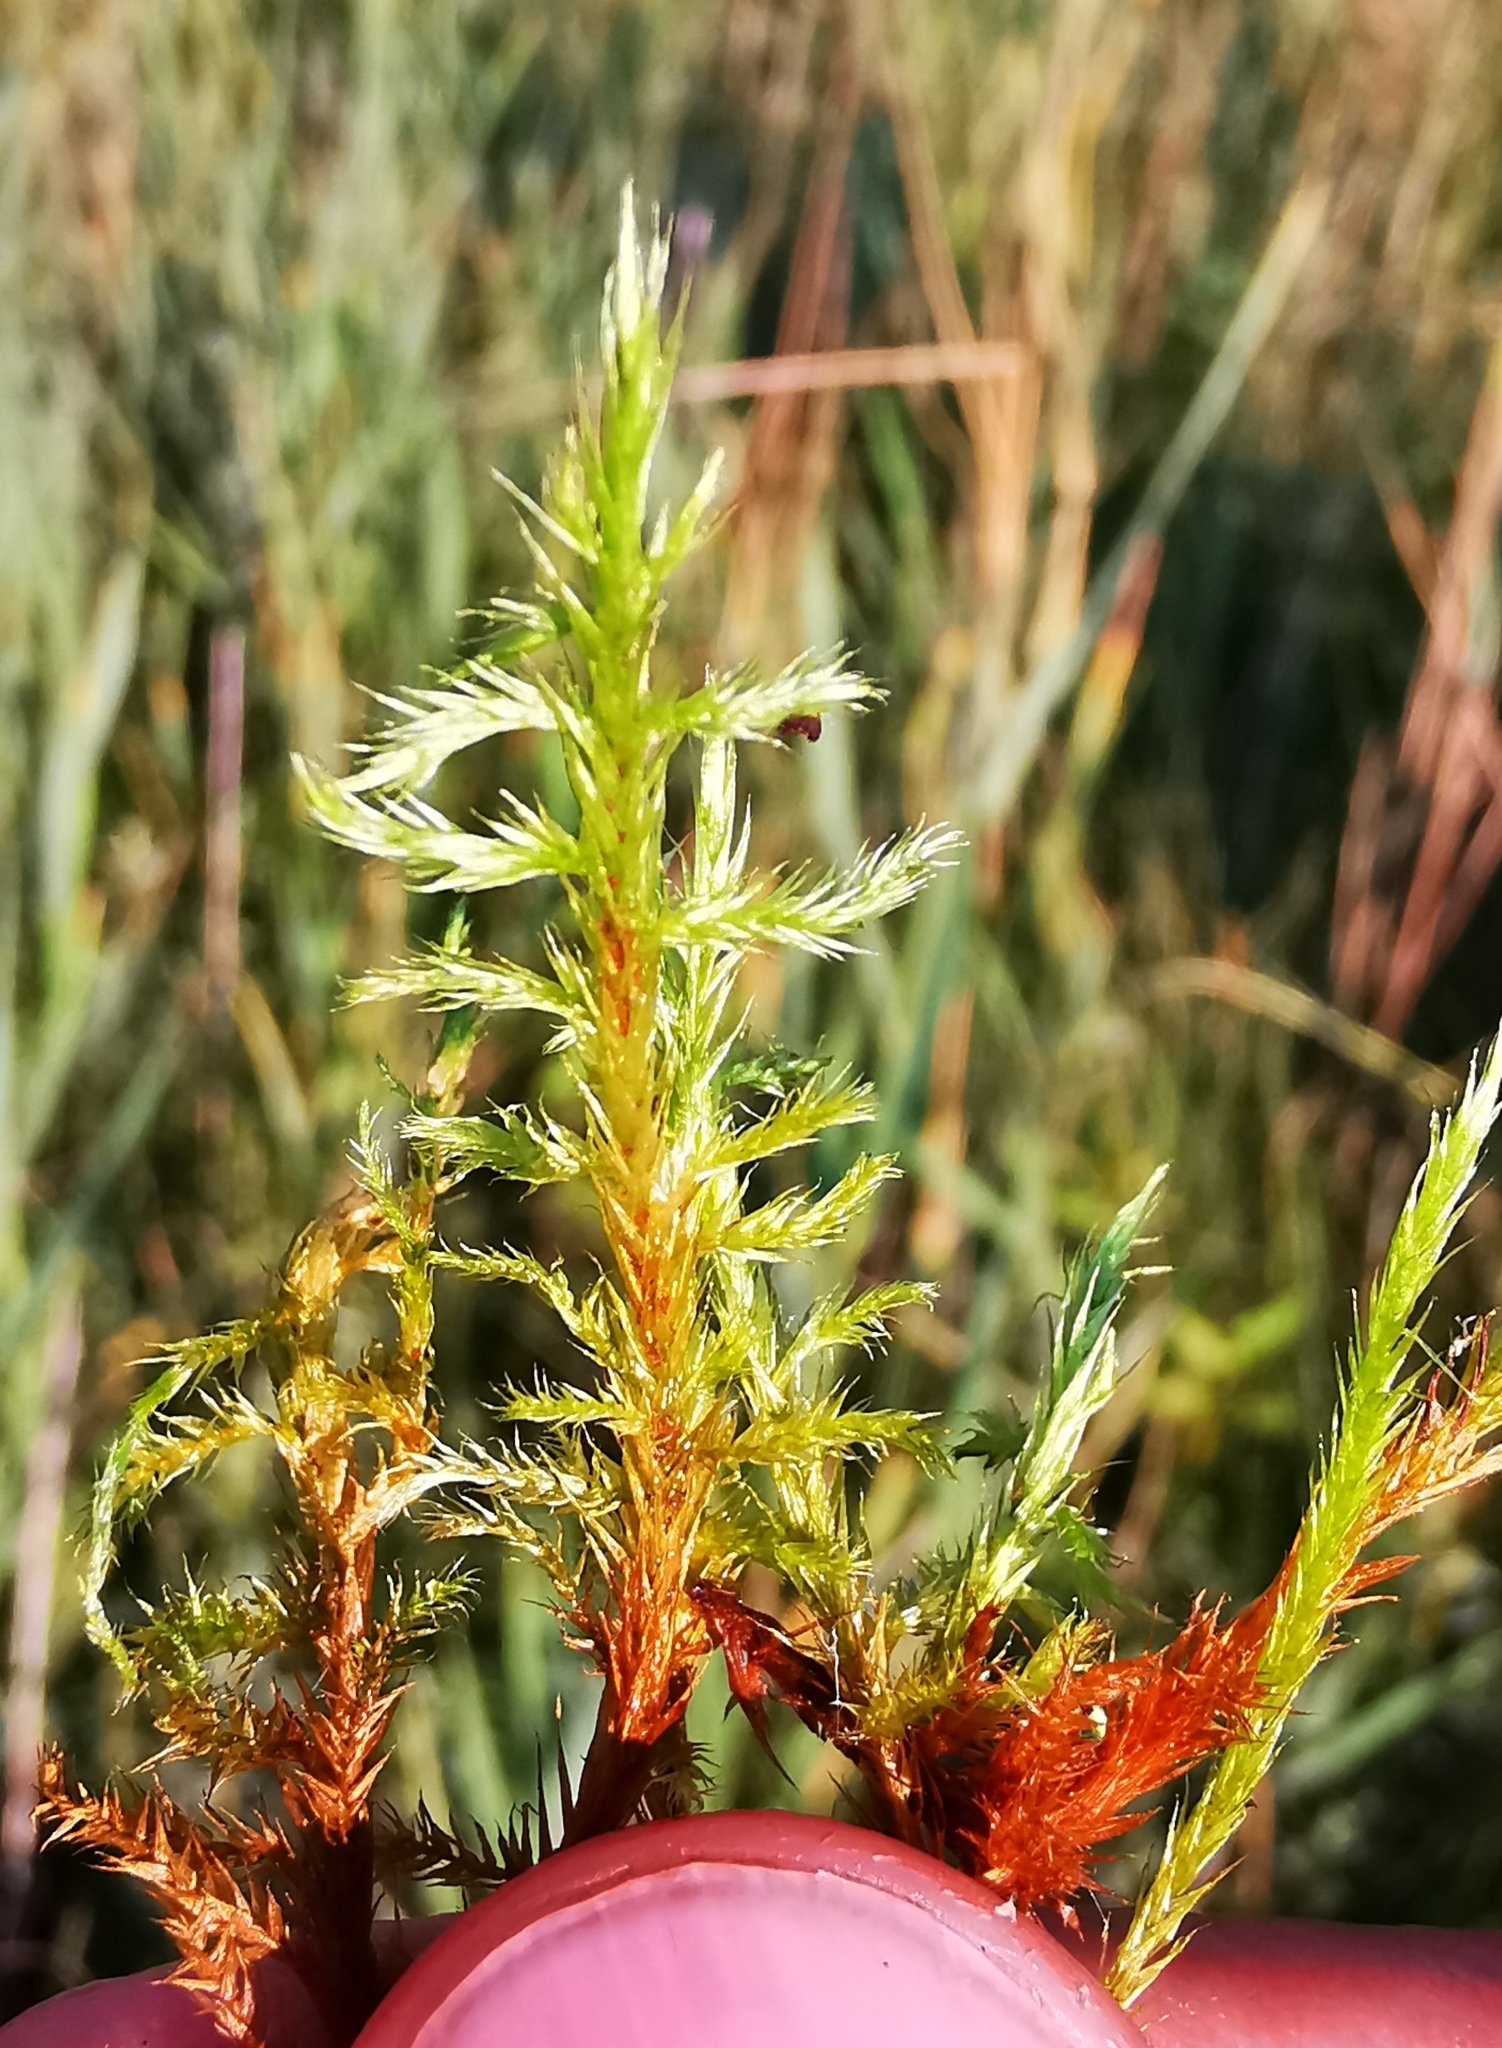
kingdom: Plantae
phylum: Bryophyta
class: Bryopsida
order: Hypnales
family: Amblystegiaceae
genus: Tomentypnum
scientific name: Tomentypnum nitens
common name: Golden fuzzy fen moss
